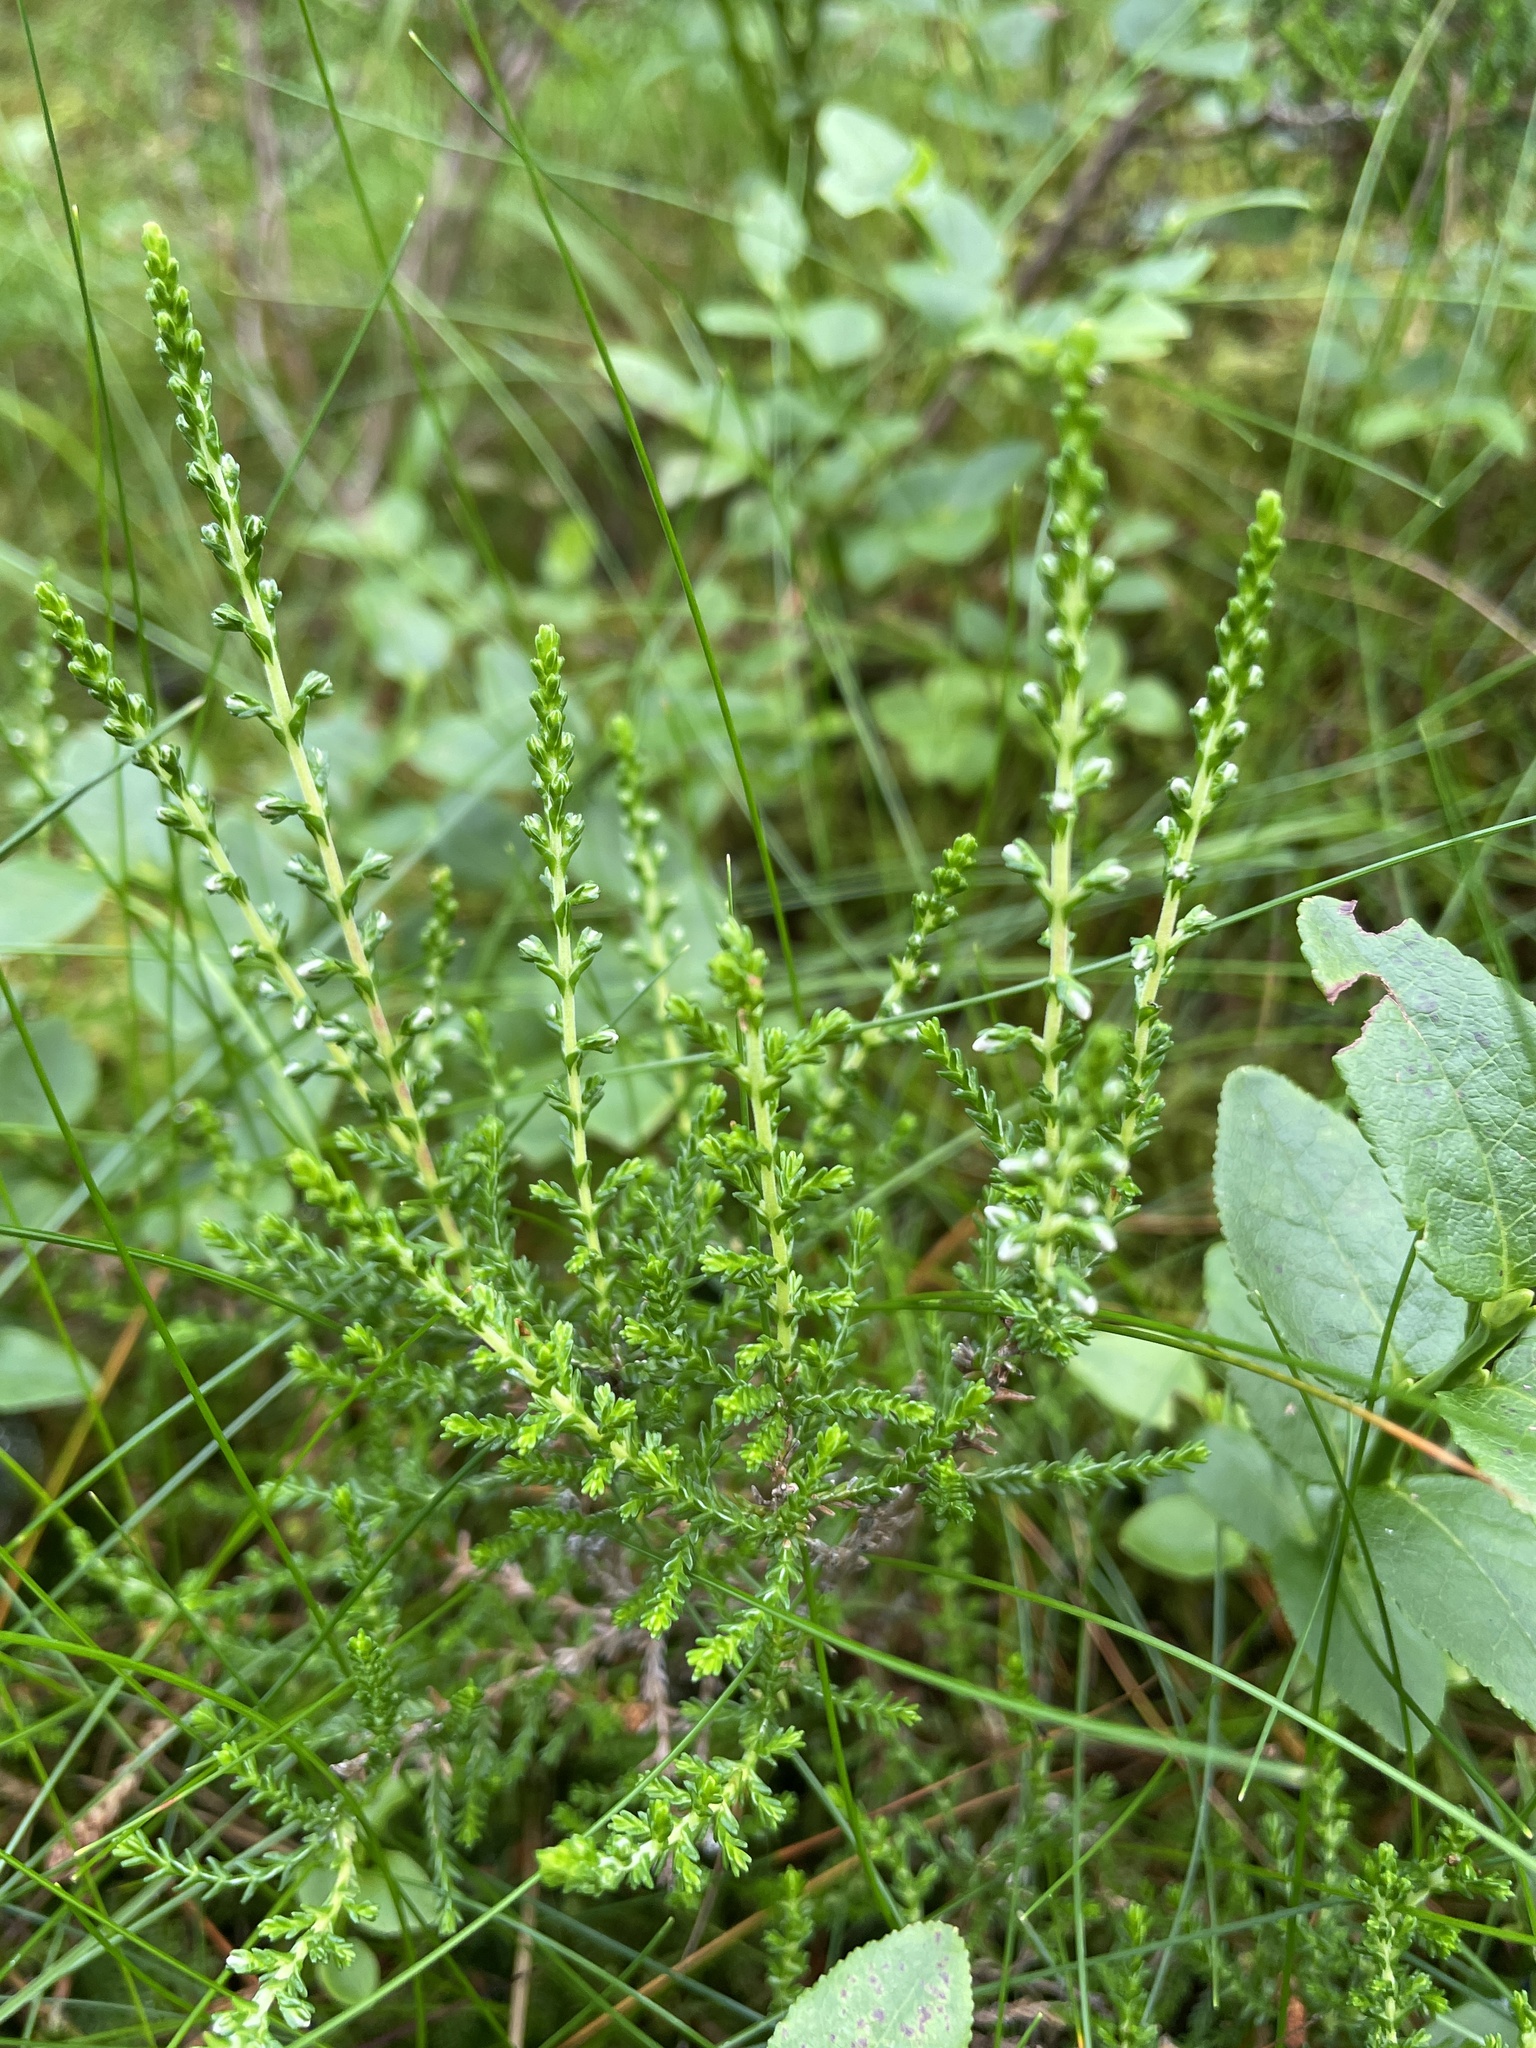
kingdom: Plantae
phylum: Tracheophyta
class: Magnoliopsida
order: Ericales
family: Ericaceae
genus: Calluna
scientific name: Calluna vulgaris
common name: Heather
